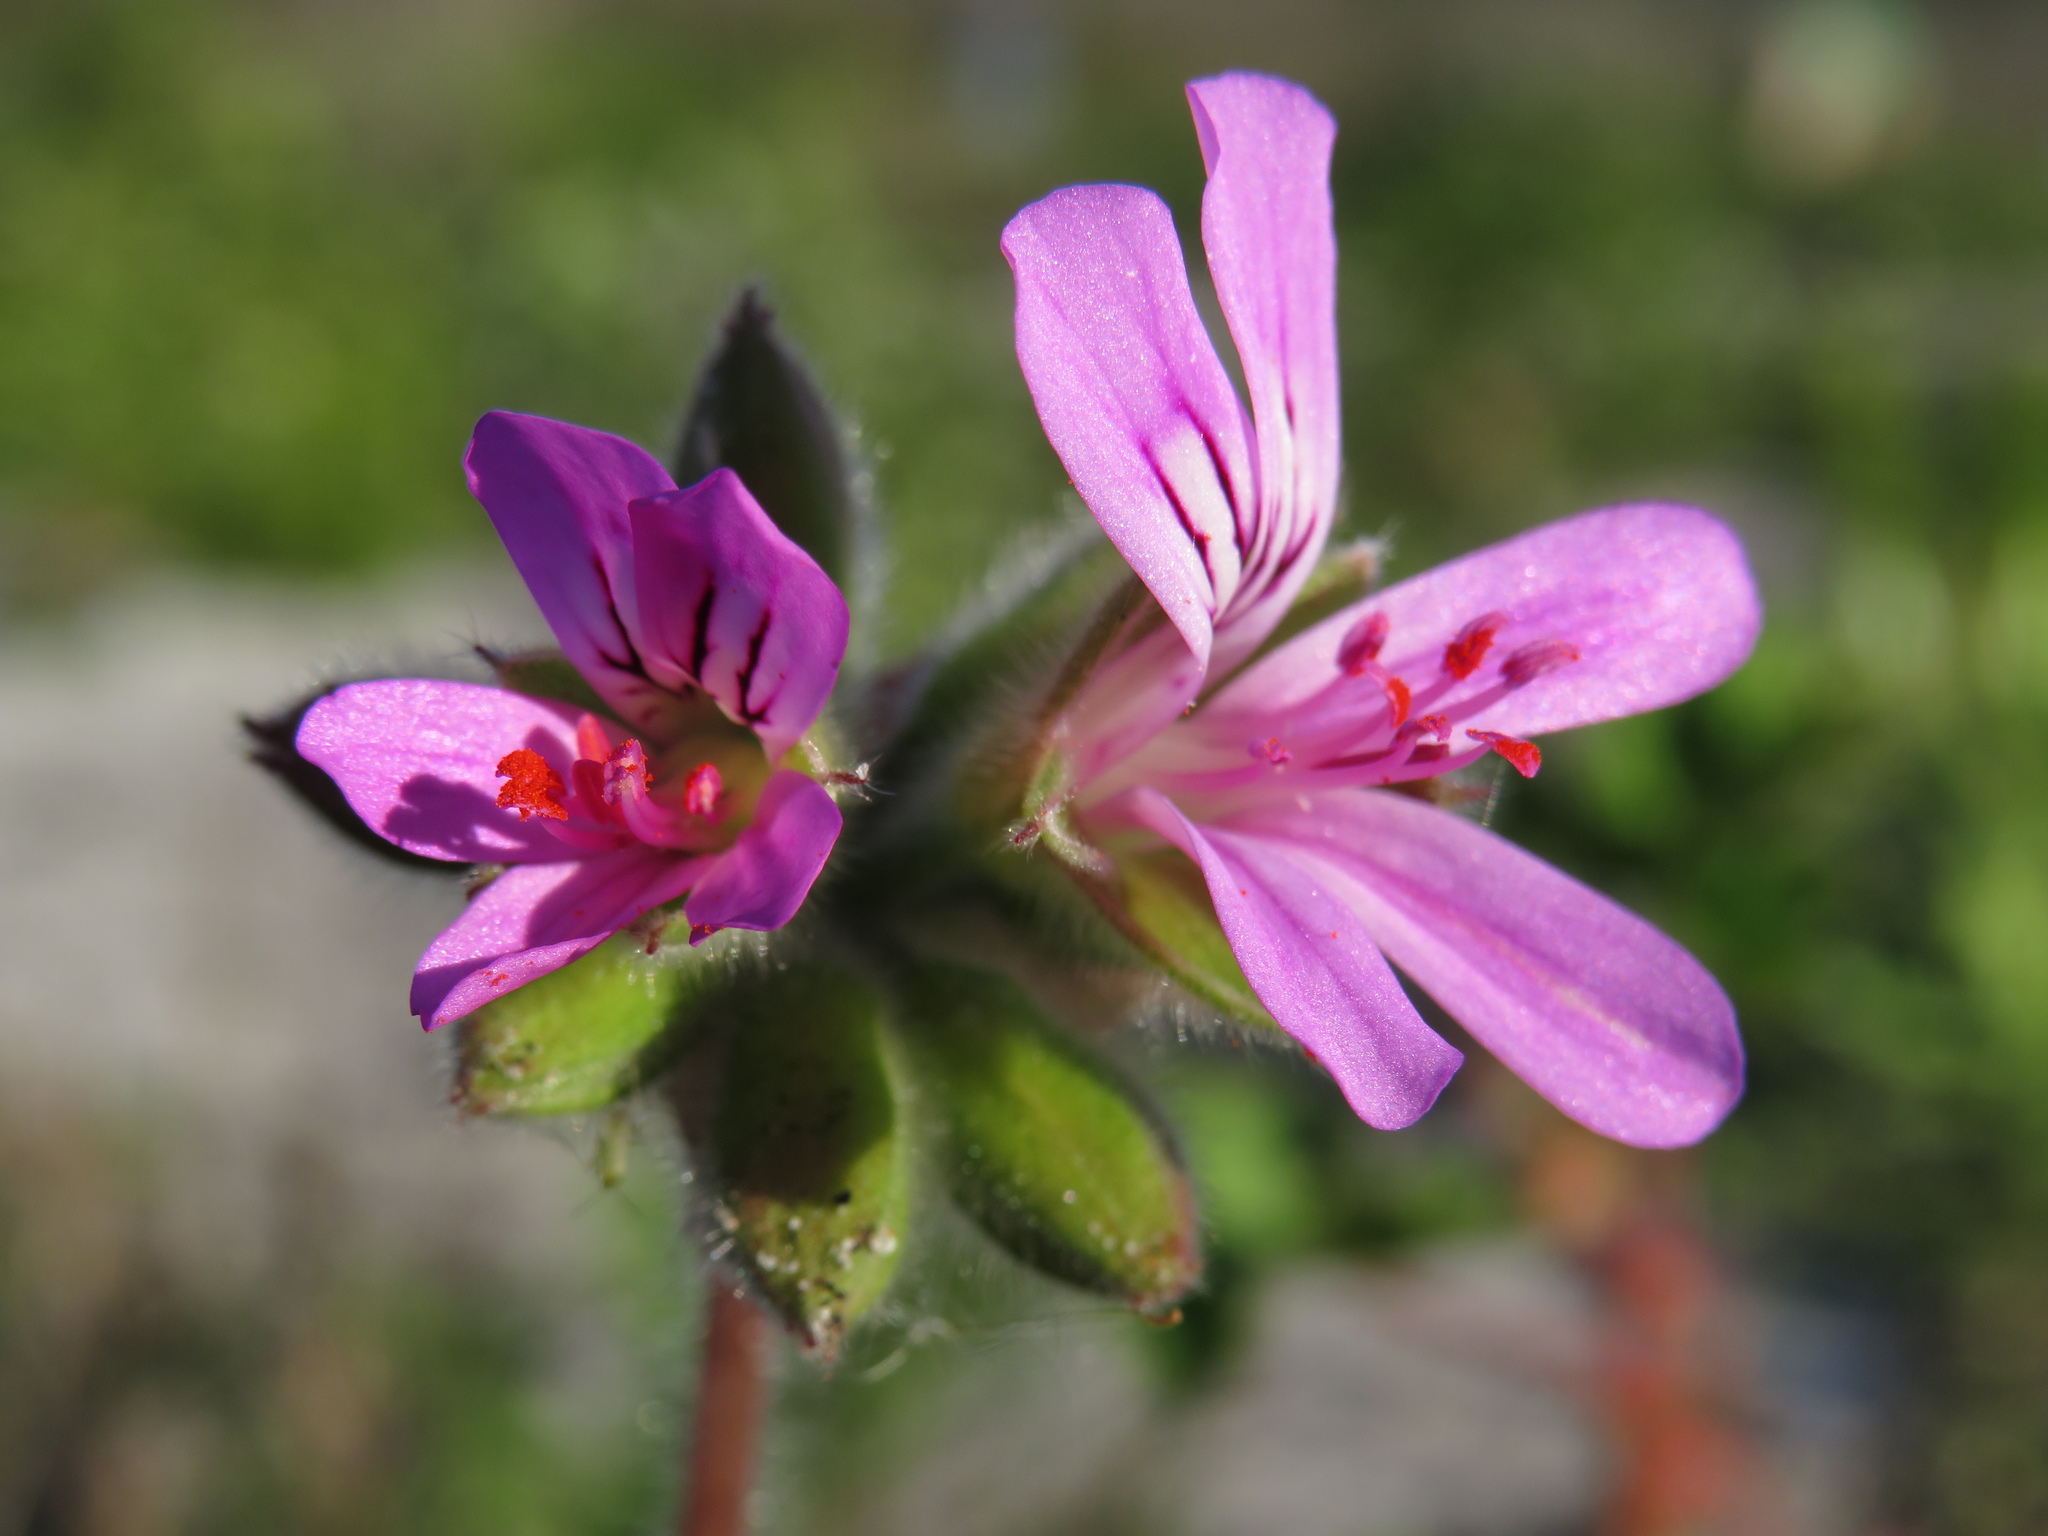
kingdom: Plantae
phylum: Tracheophyta
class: Magnoliopsida
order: Geraniales
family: Geraniaceae
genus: Pelargonium
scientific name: Pelargonium capitatum
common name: Rose scented geranium
